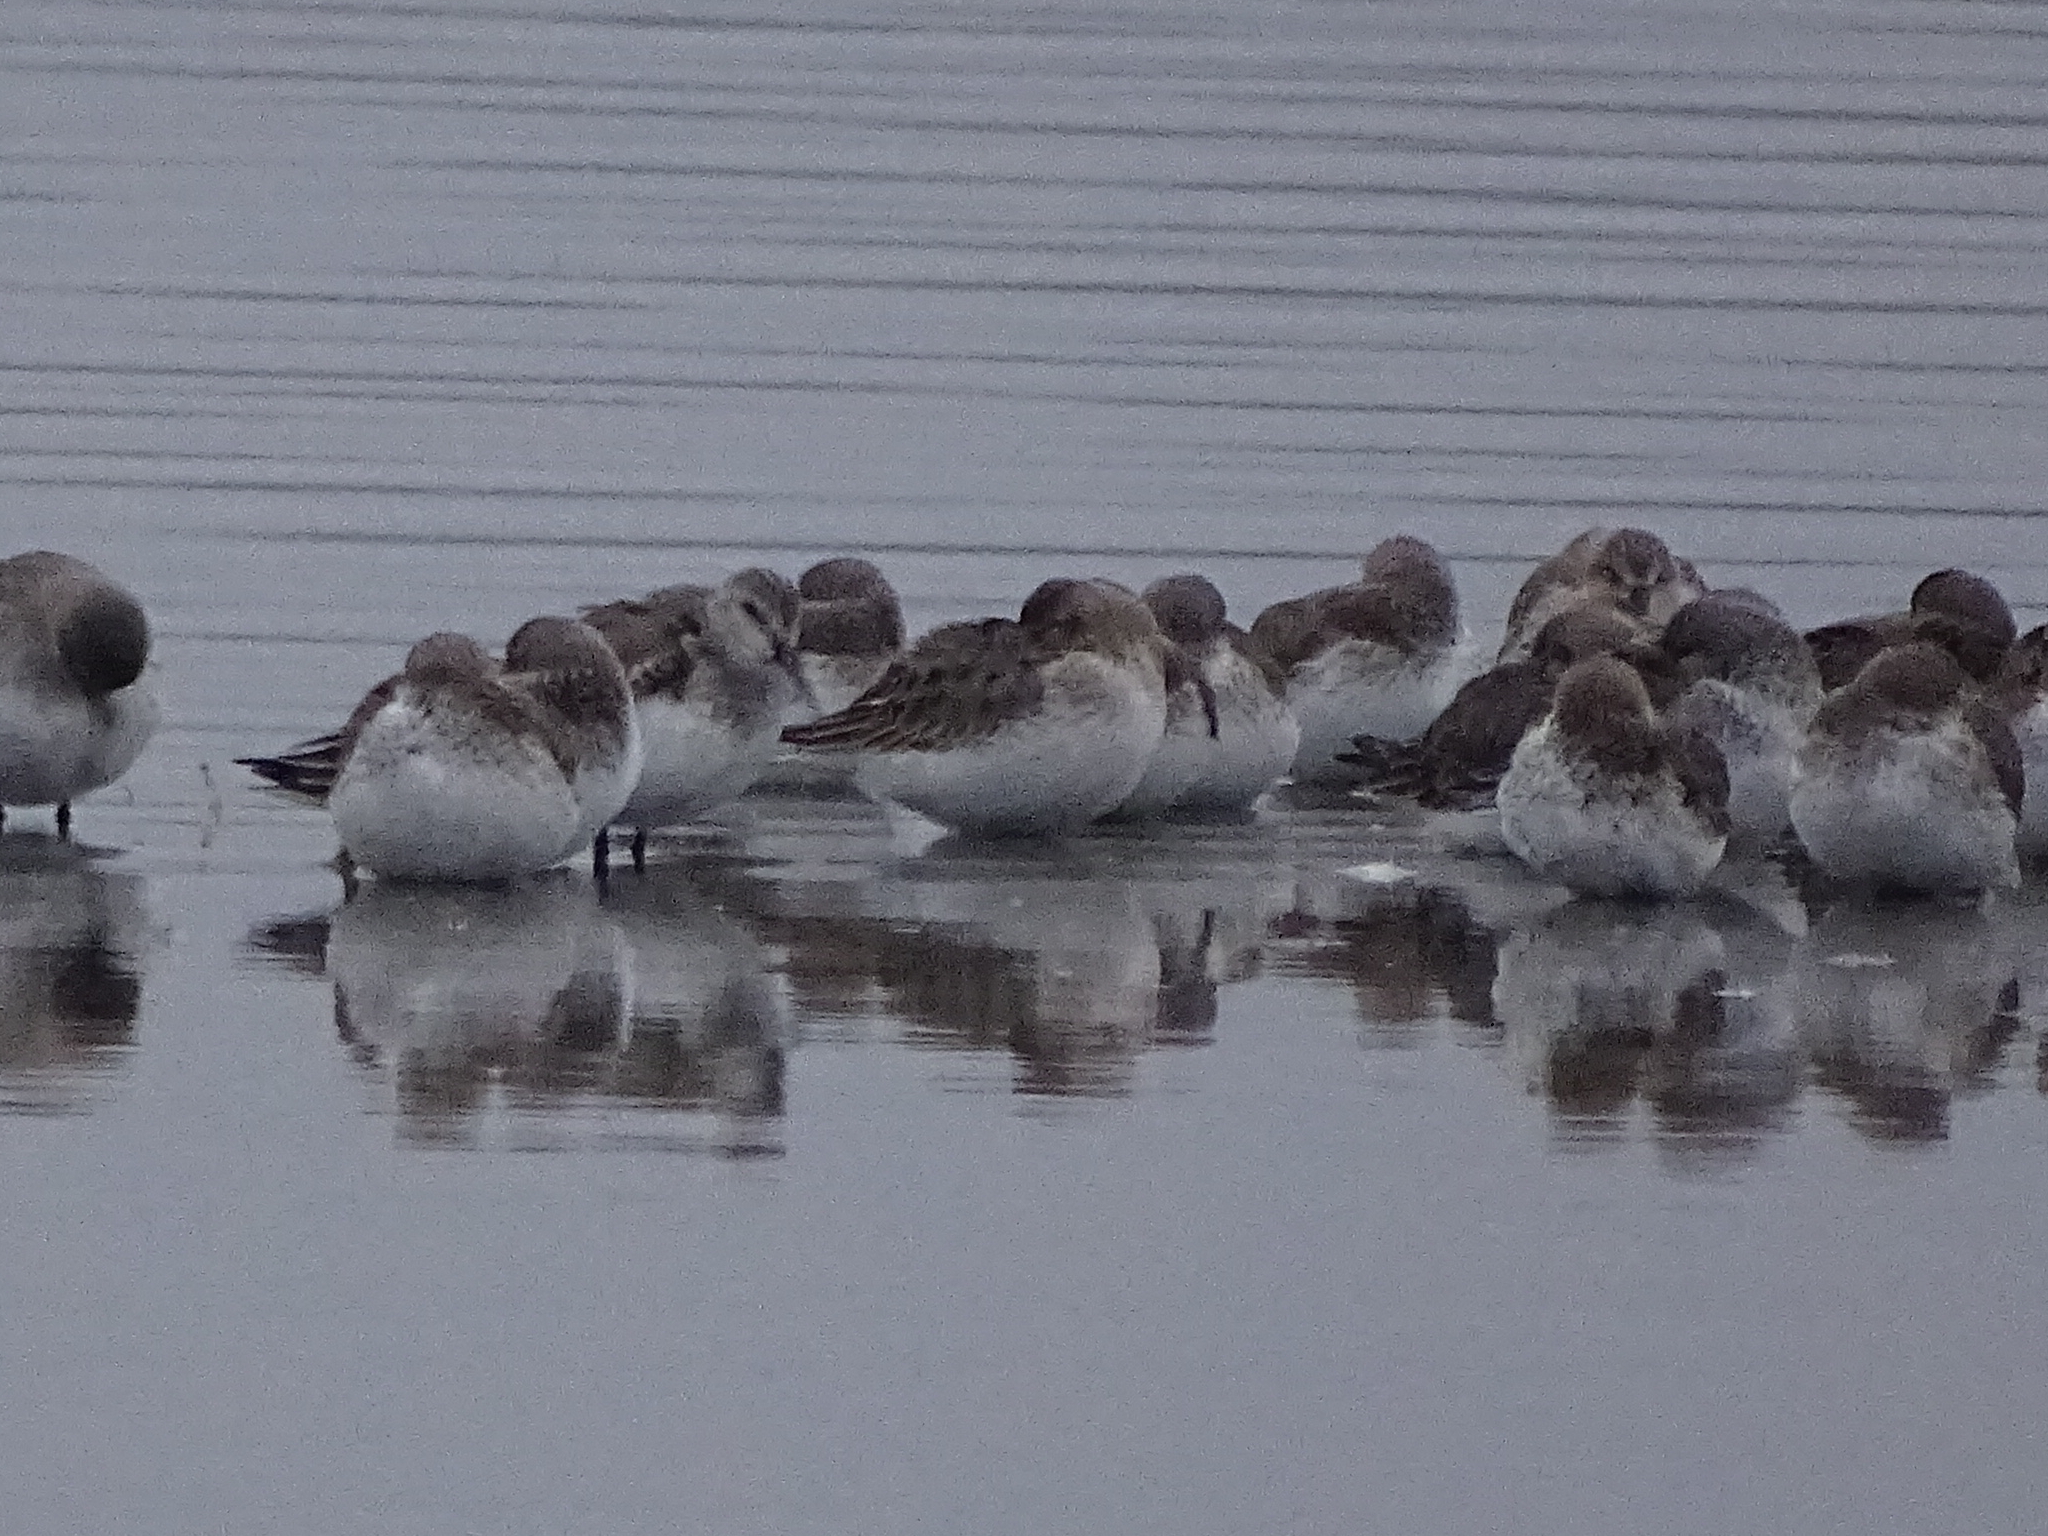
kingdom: Animalia
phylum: Chordata
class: Aves
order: Charadriiformes
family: Scolopacidae
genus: Calidris
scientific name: Calidris alpina
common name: Dunlin
